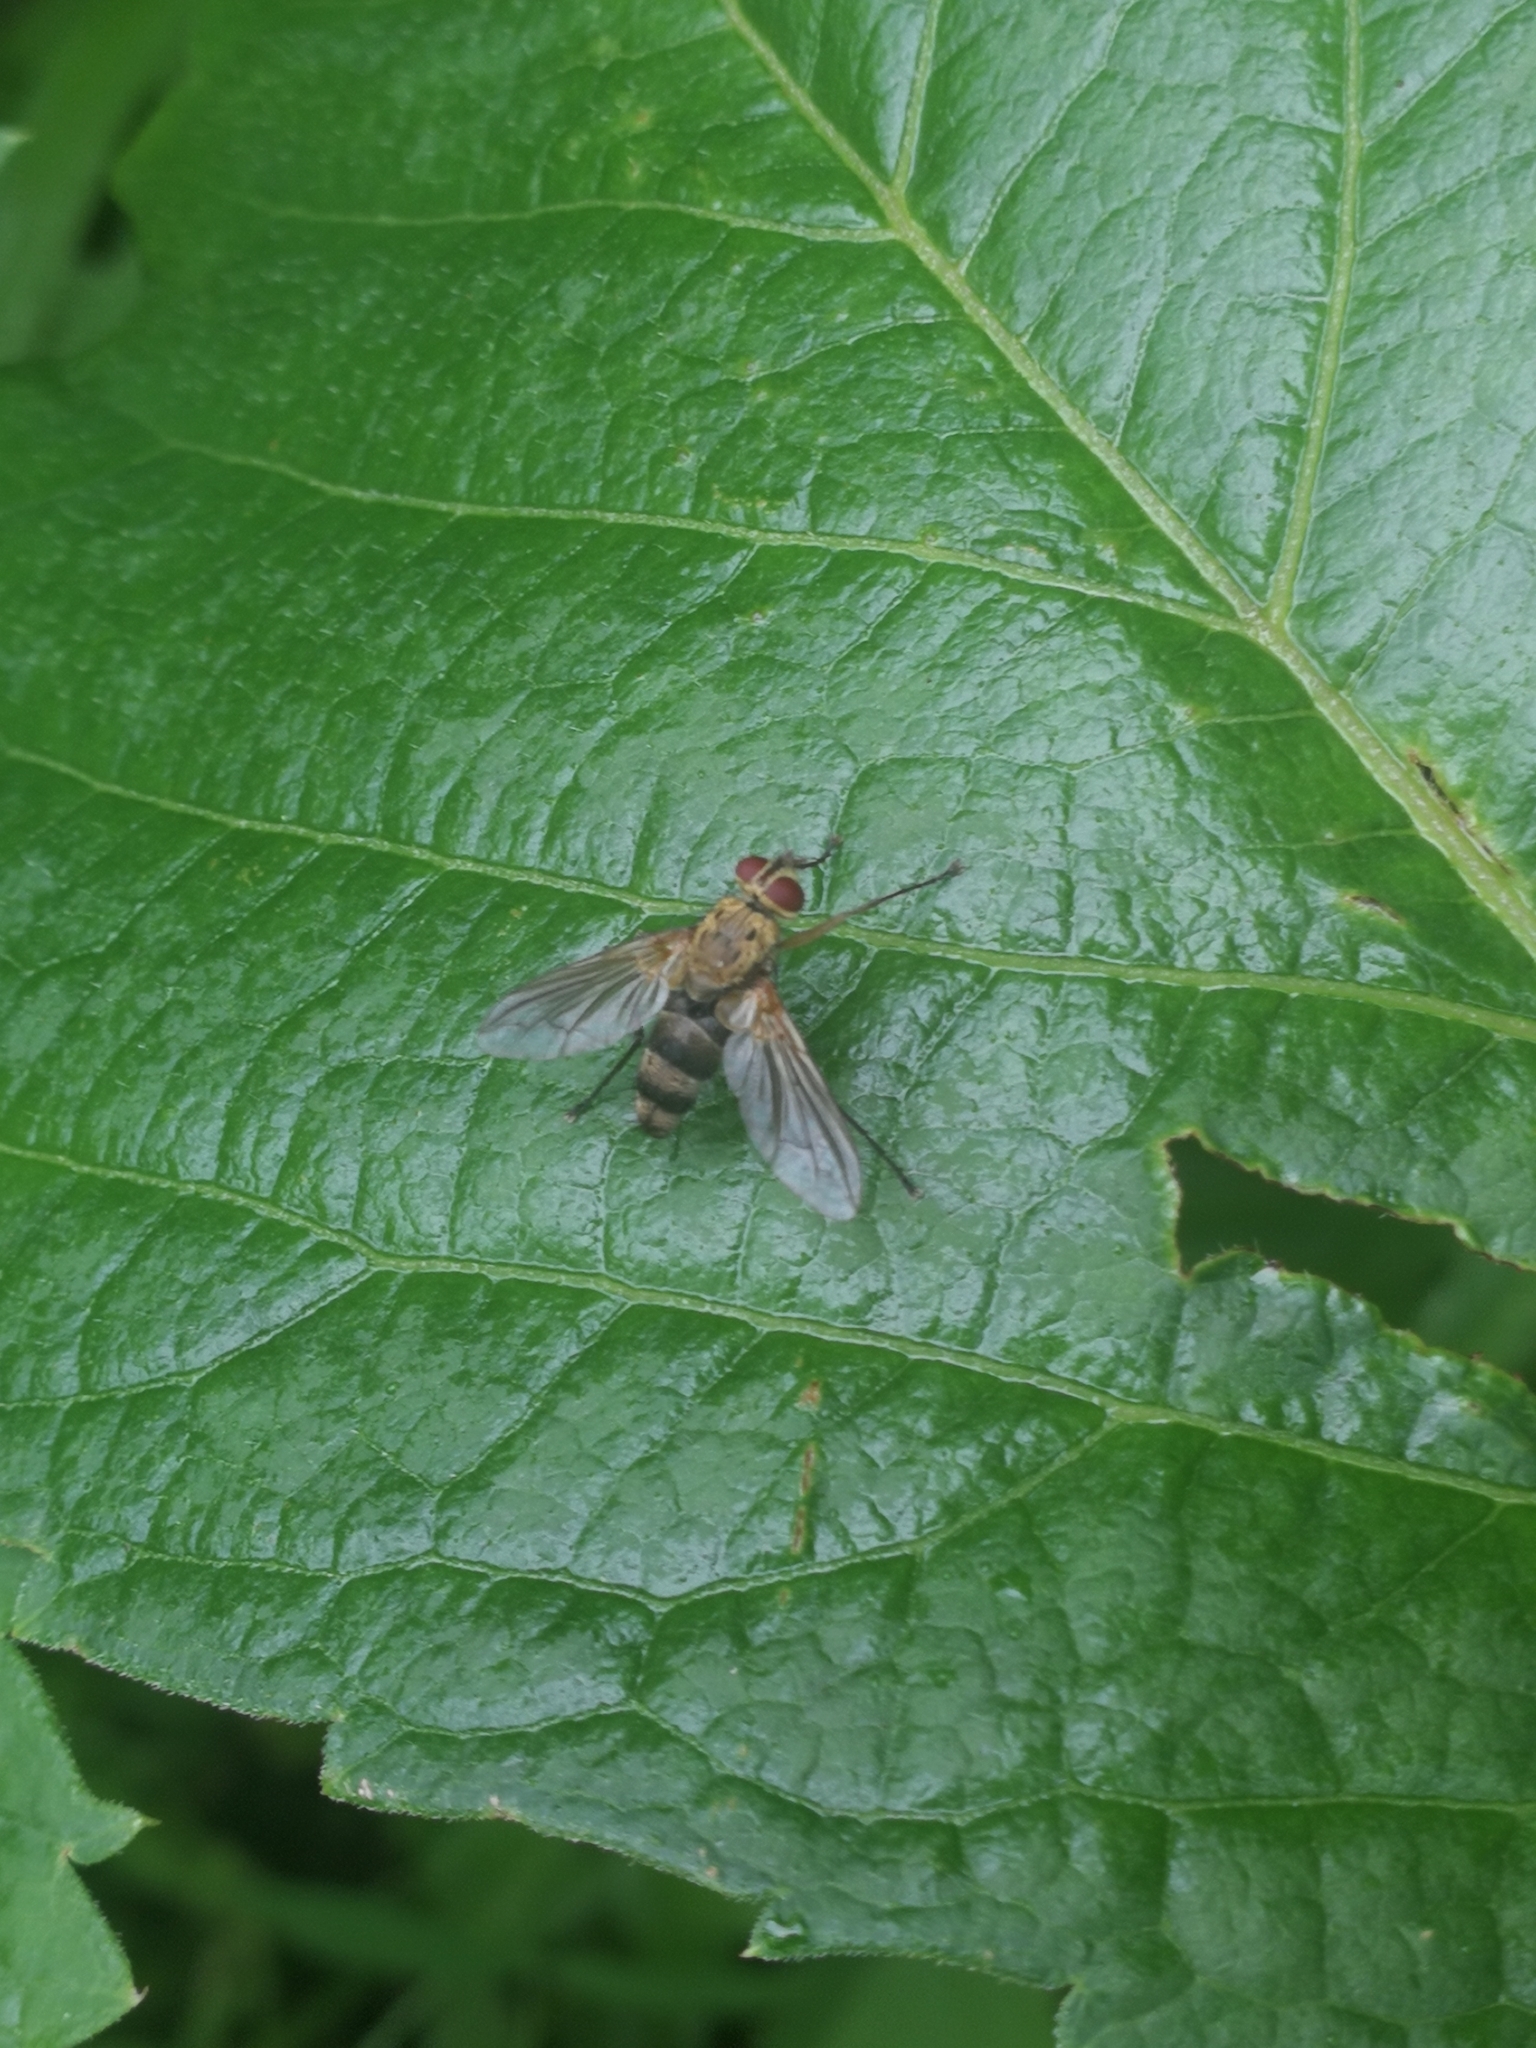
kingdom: Animalia
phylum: Arthropoda
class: Insecta
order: Diptera
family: Tachinidae
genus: Dexiosoma
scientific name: Dexiosoma caninum
